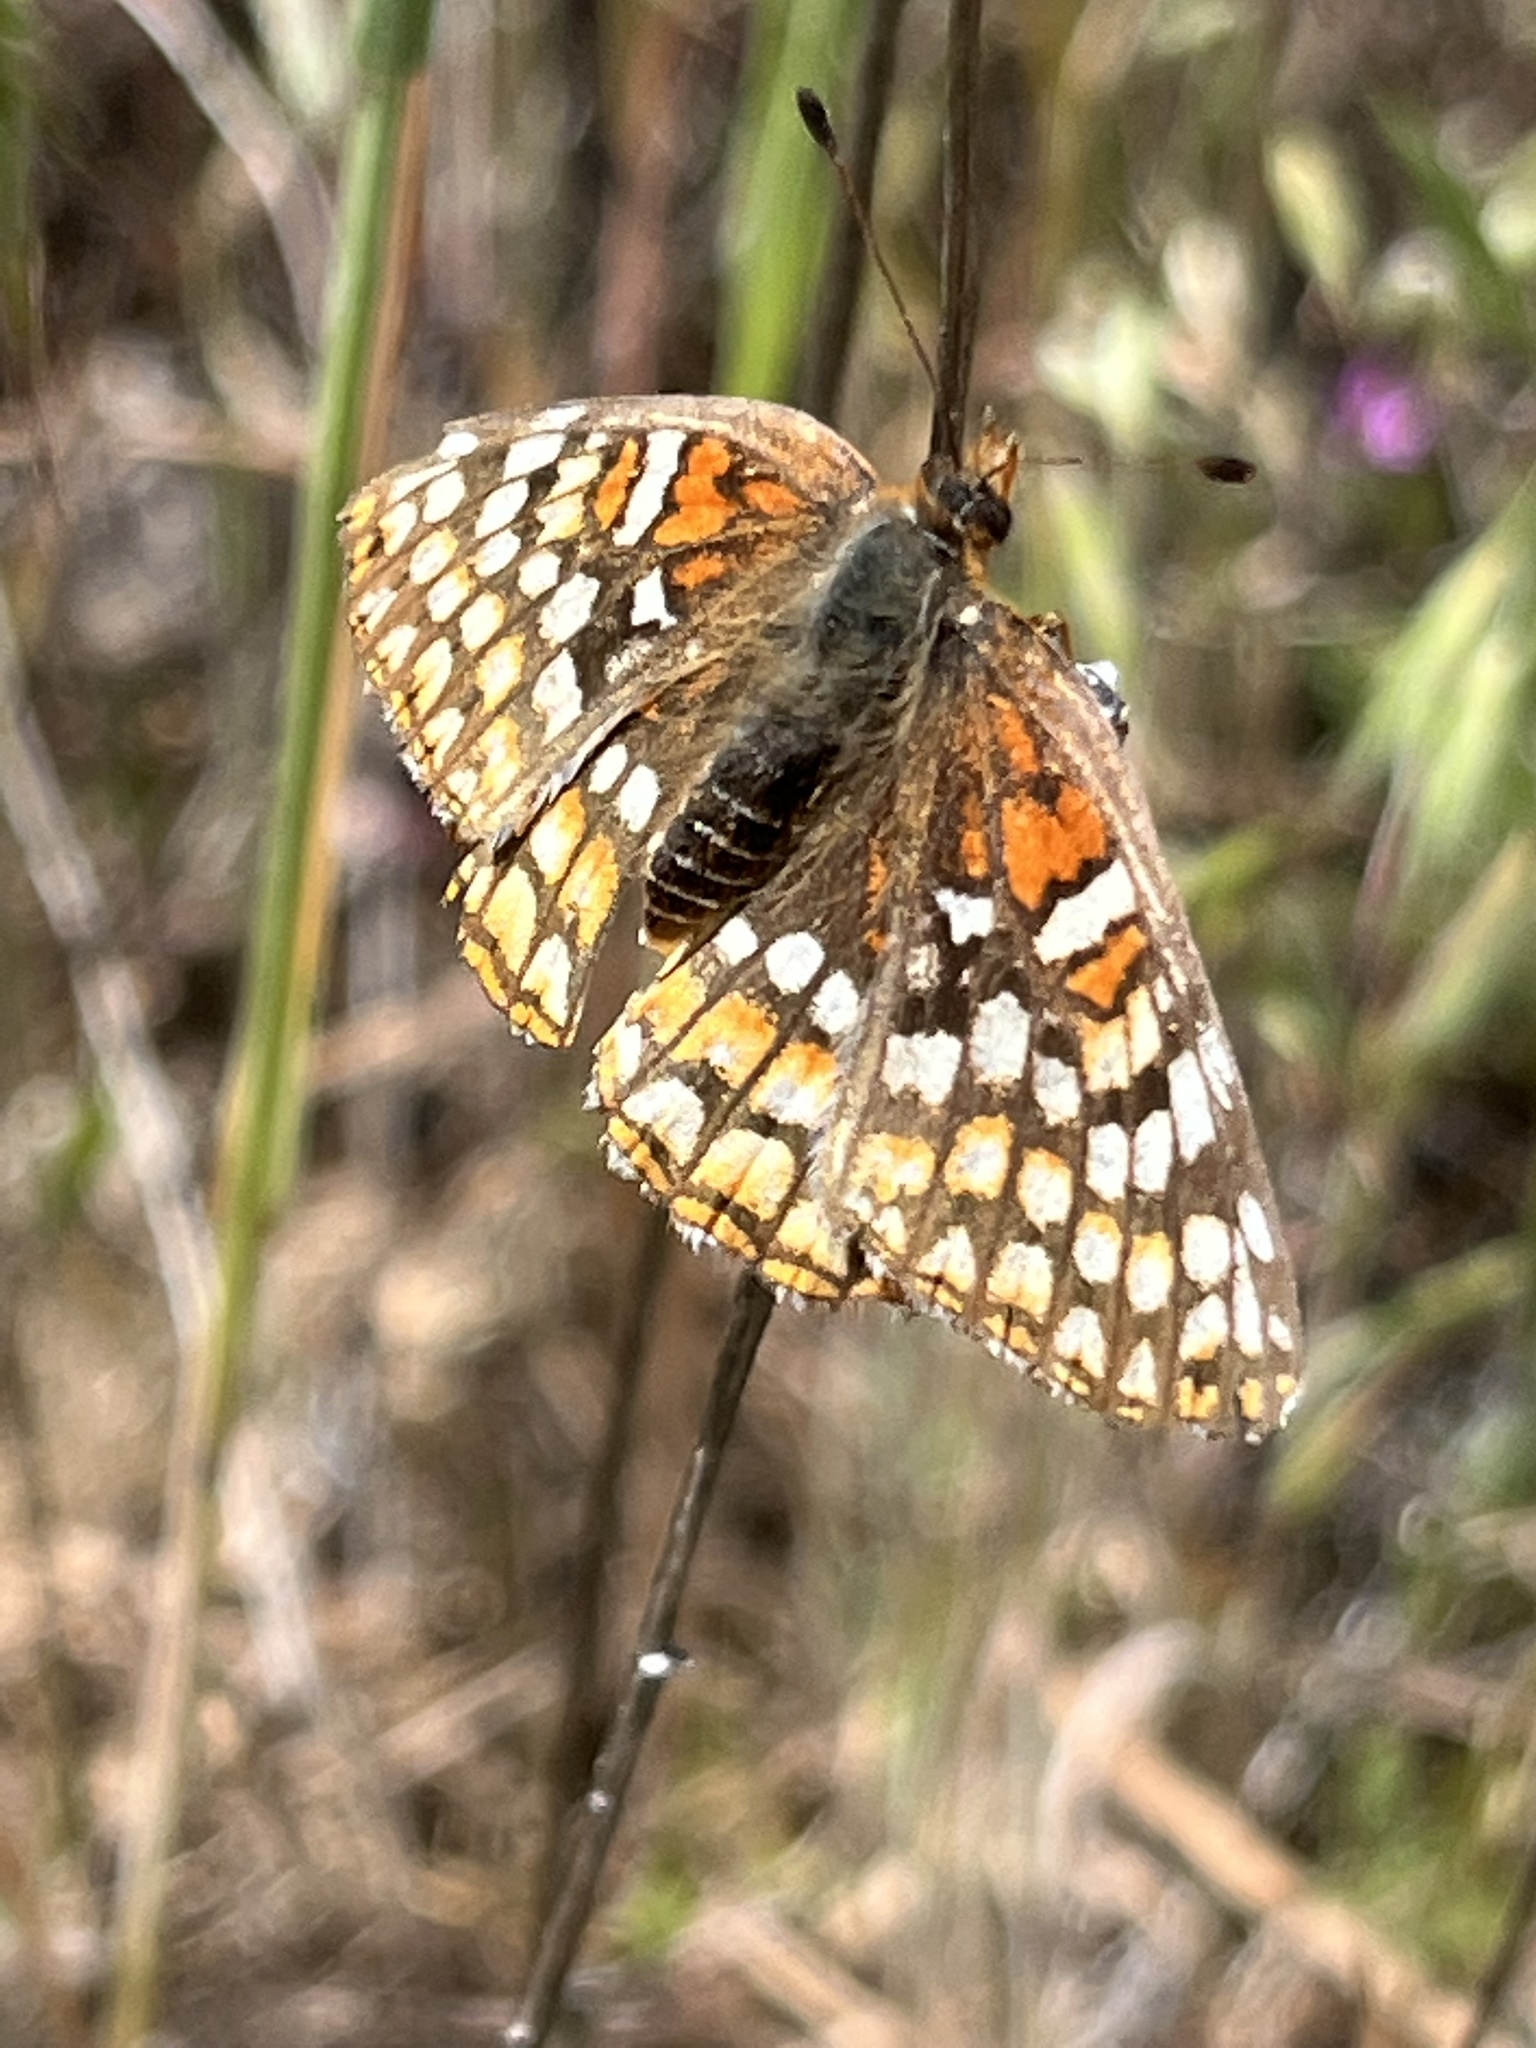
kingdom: Animalia
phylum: Arthropoda
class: Insecta
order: Lepidoptera
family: Nymphalidae
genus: Chlosyne
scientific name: Chlosyne gabbii
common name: Gabb's checkerspot
